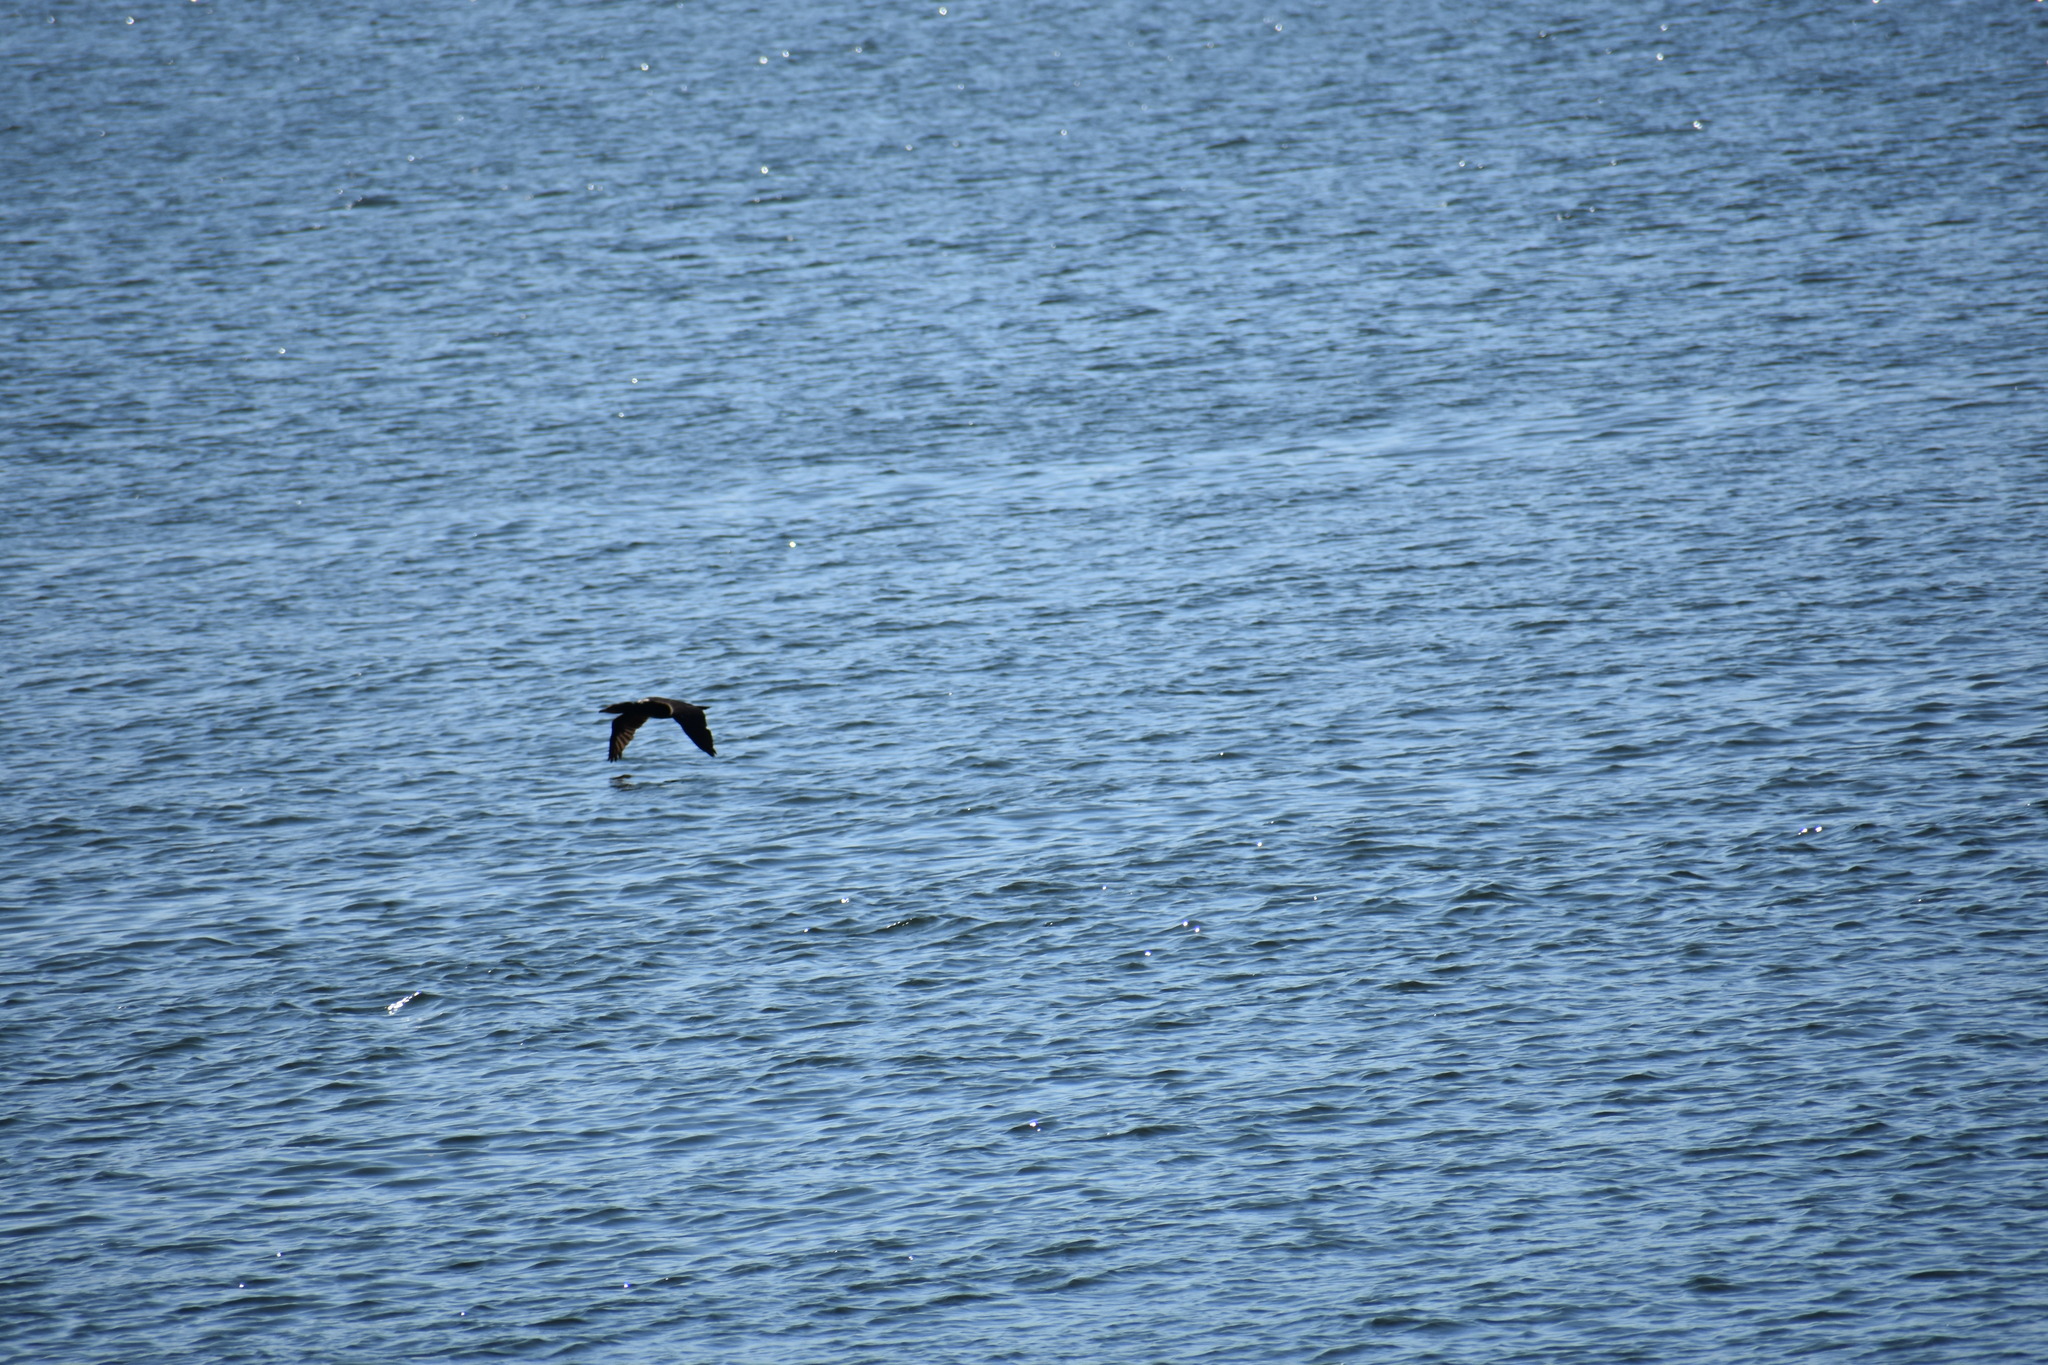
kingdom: Animalia
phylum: Chordata
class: Aves
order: Suliformes
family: Phalacrocoracidae
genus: Phalacrocorax
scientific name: Phalacrocorax auritus
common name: Double-crested cormorant
